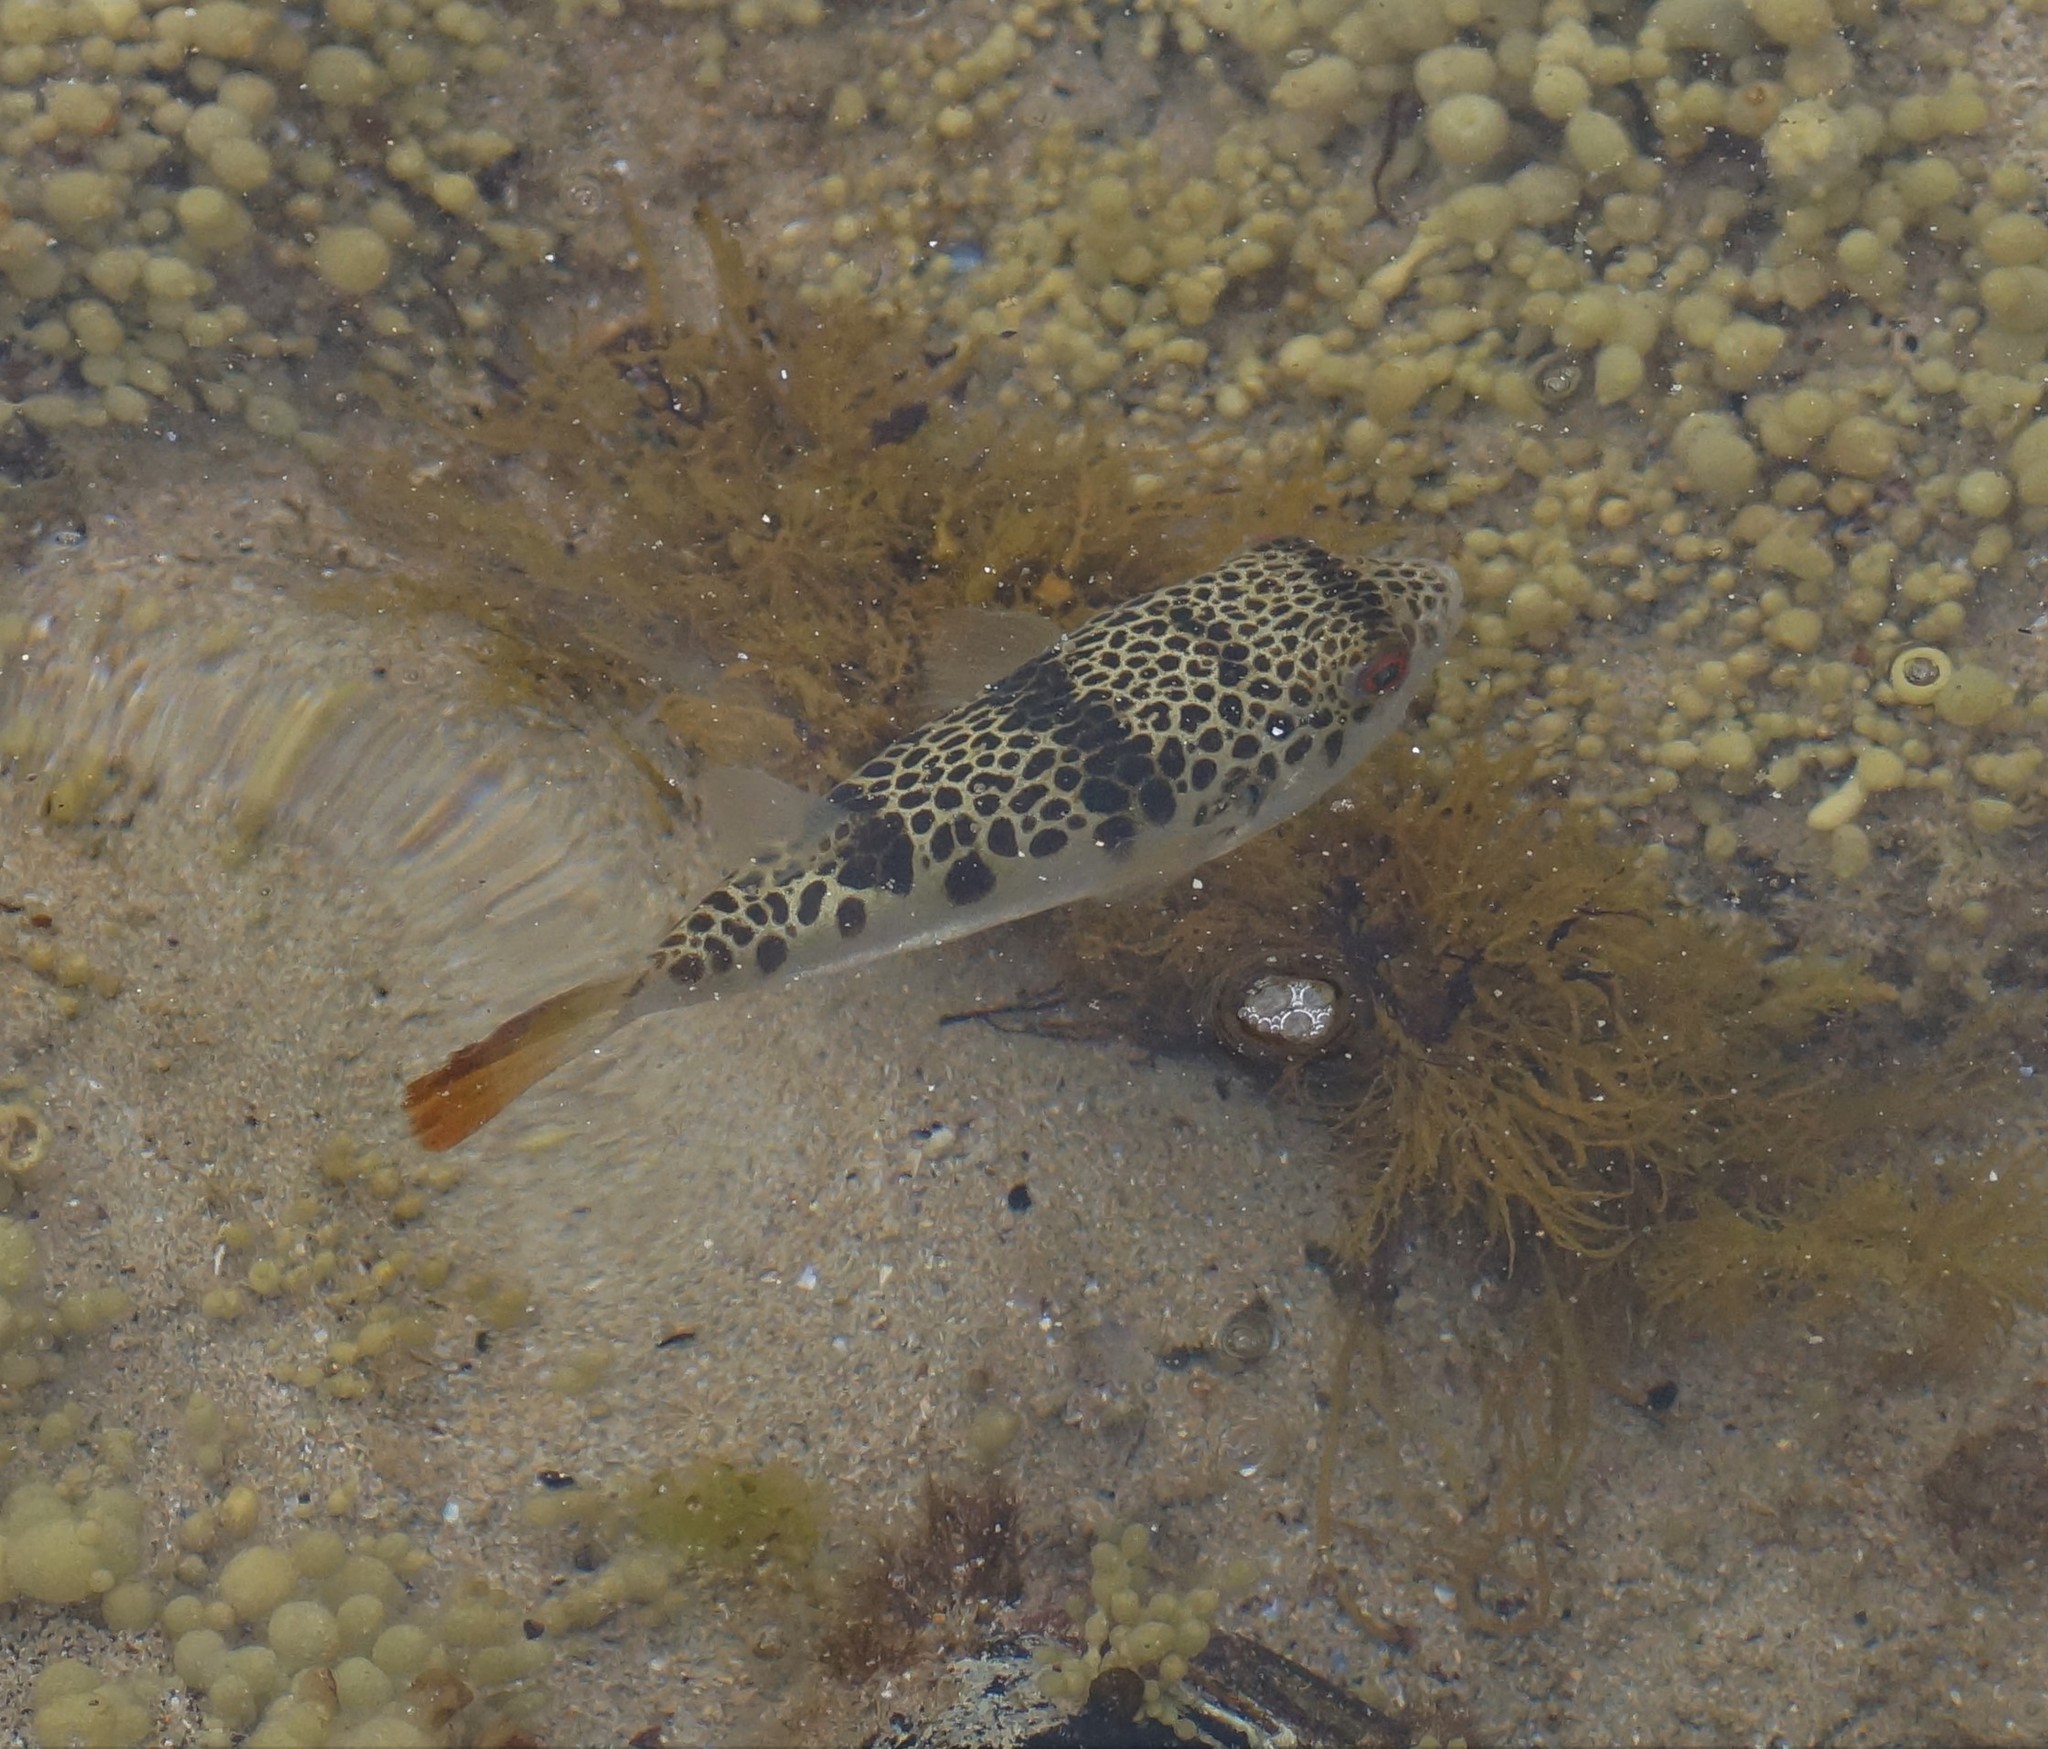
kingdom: Animalia
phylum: Chordata
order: Tetraodontiformes
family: Tetraodontidae
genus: Tetractenos
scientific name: Tetractenos glaber
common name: Smooth toadfish
